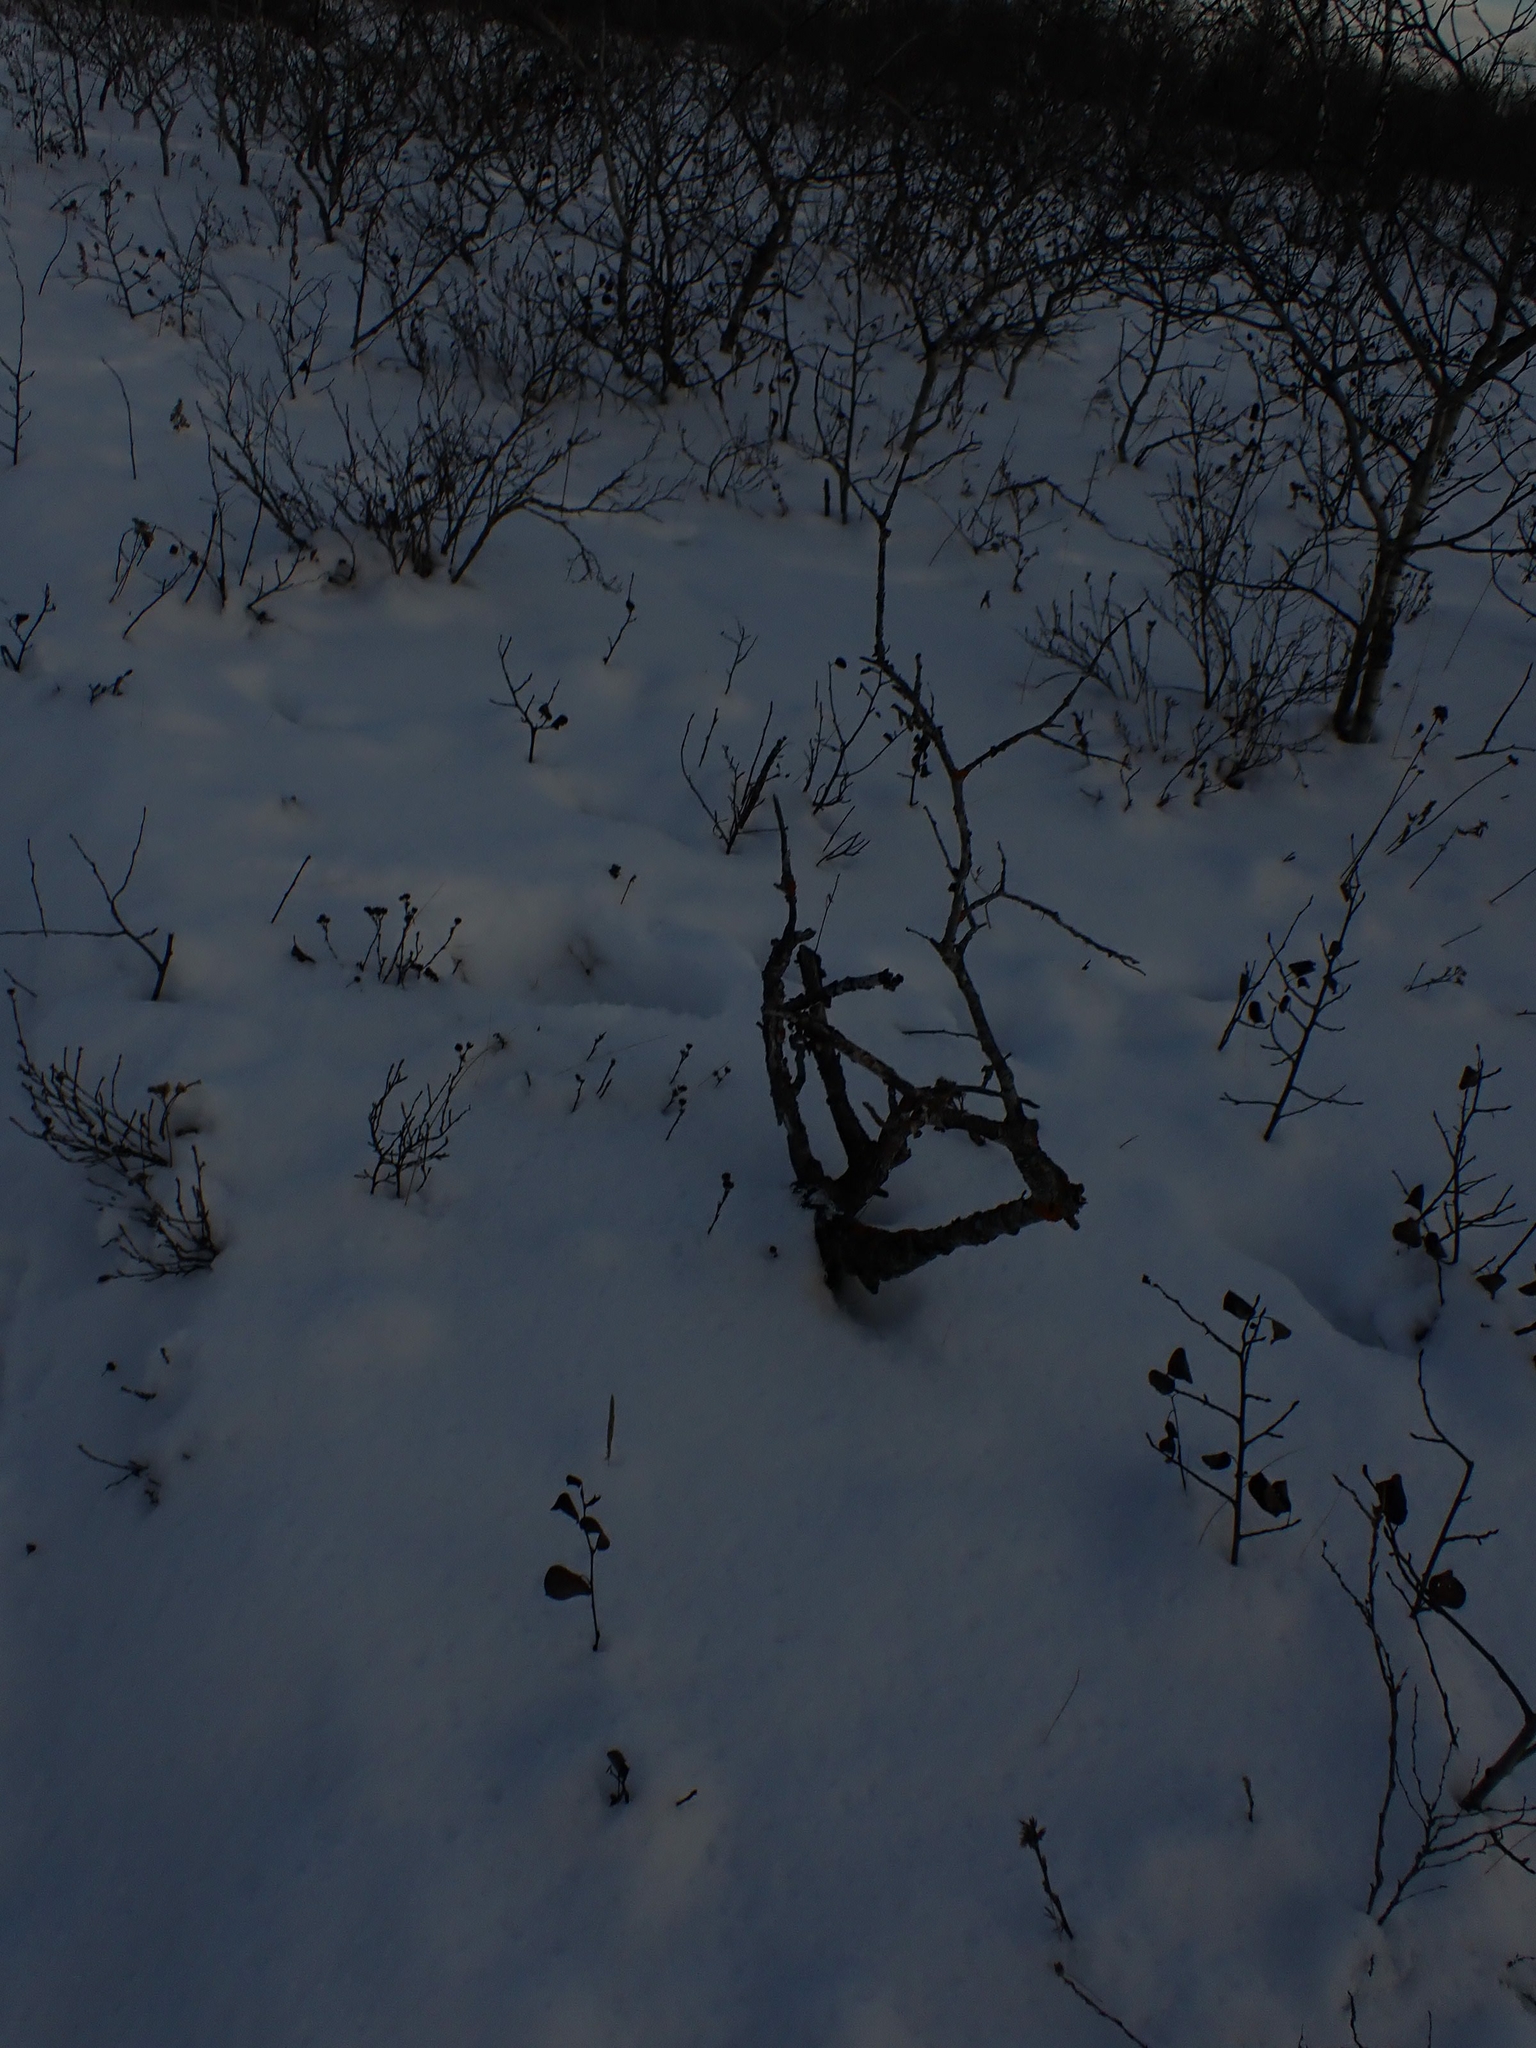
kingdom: Plantae
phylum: Tracheophyta
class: Magnoliopsida
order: Fagales
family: Fagaceae
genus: Quercus
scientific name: Quercus macrocarpa
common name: Bur oak
